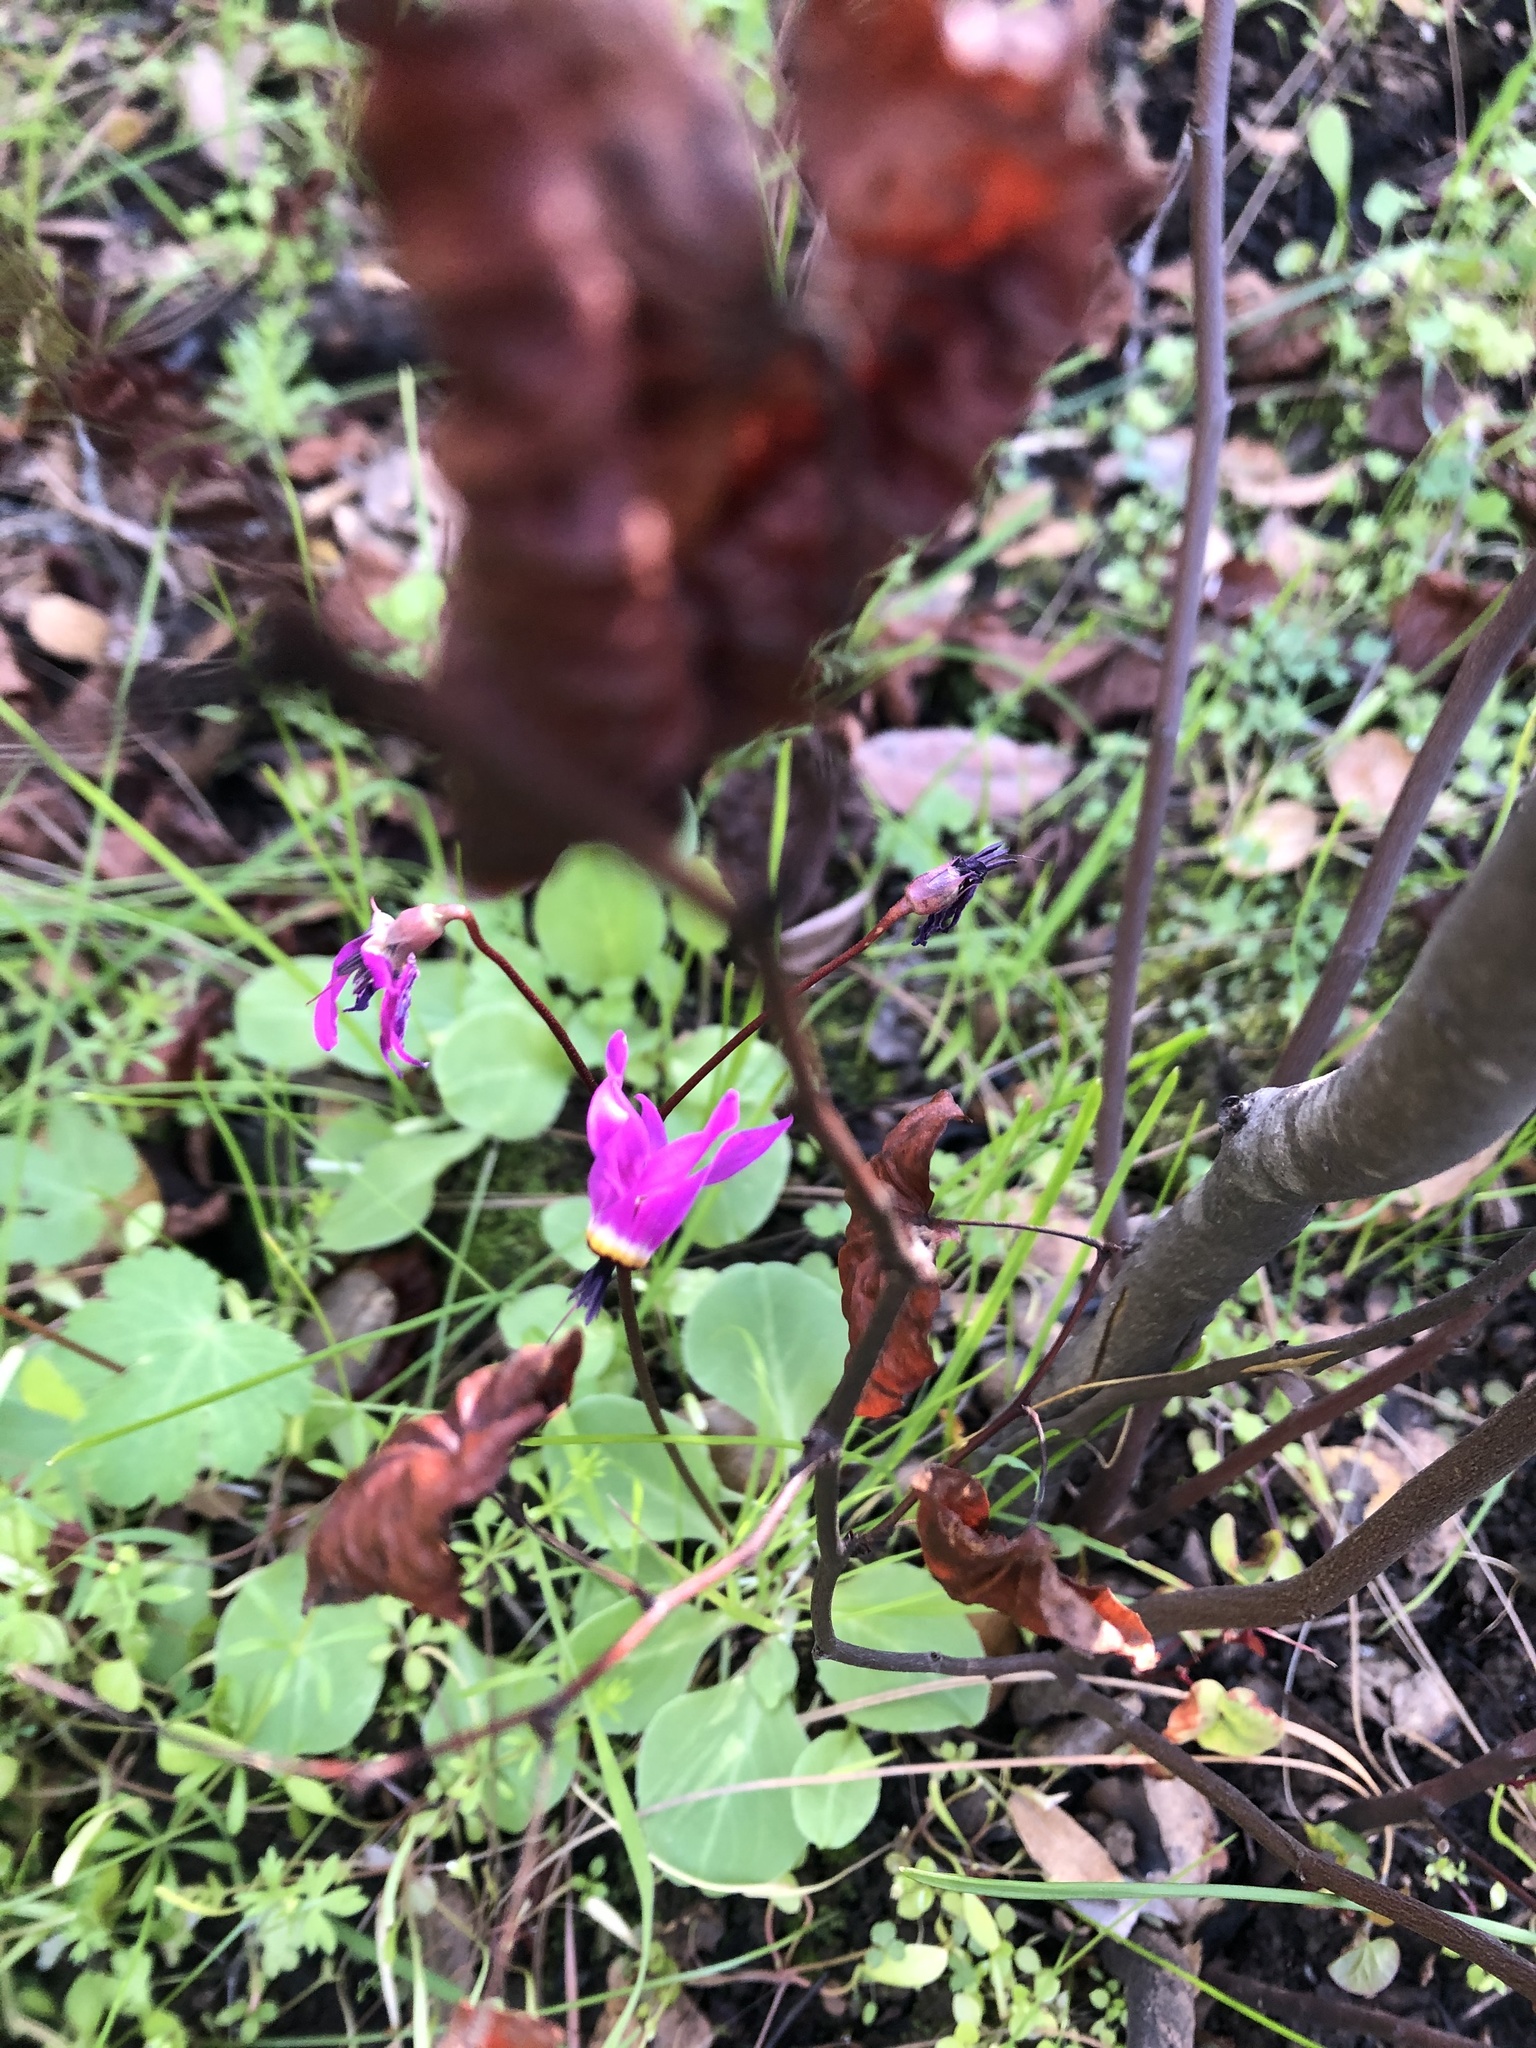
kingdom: Plantae
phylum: Tracheophyta
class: Magnoliopsida
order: Ericales
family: Primulaceae
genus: Dodecatheon
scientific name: Dodecatheon hendersonii
